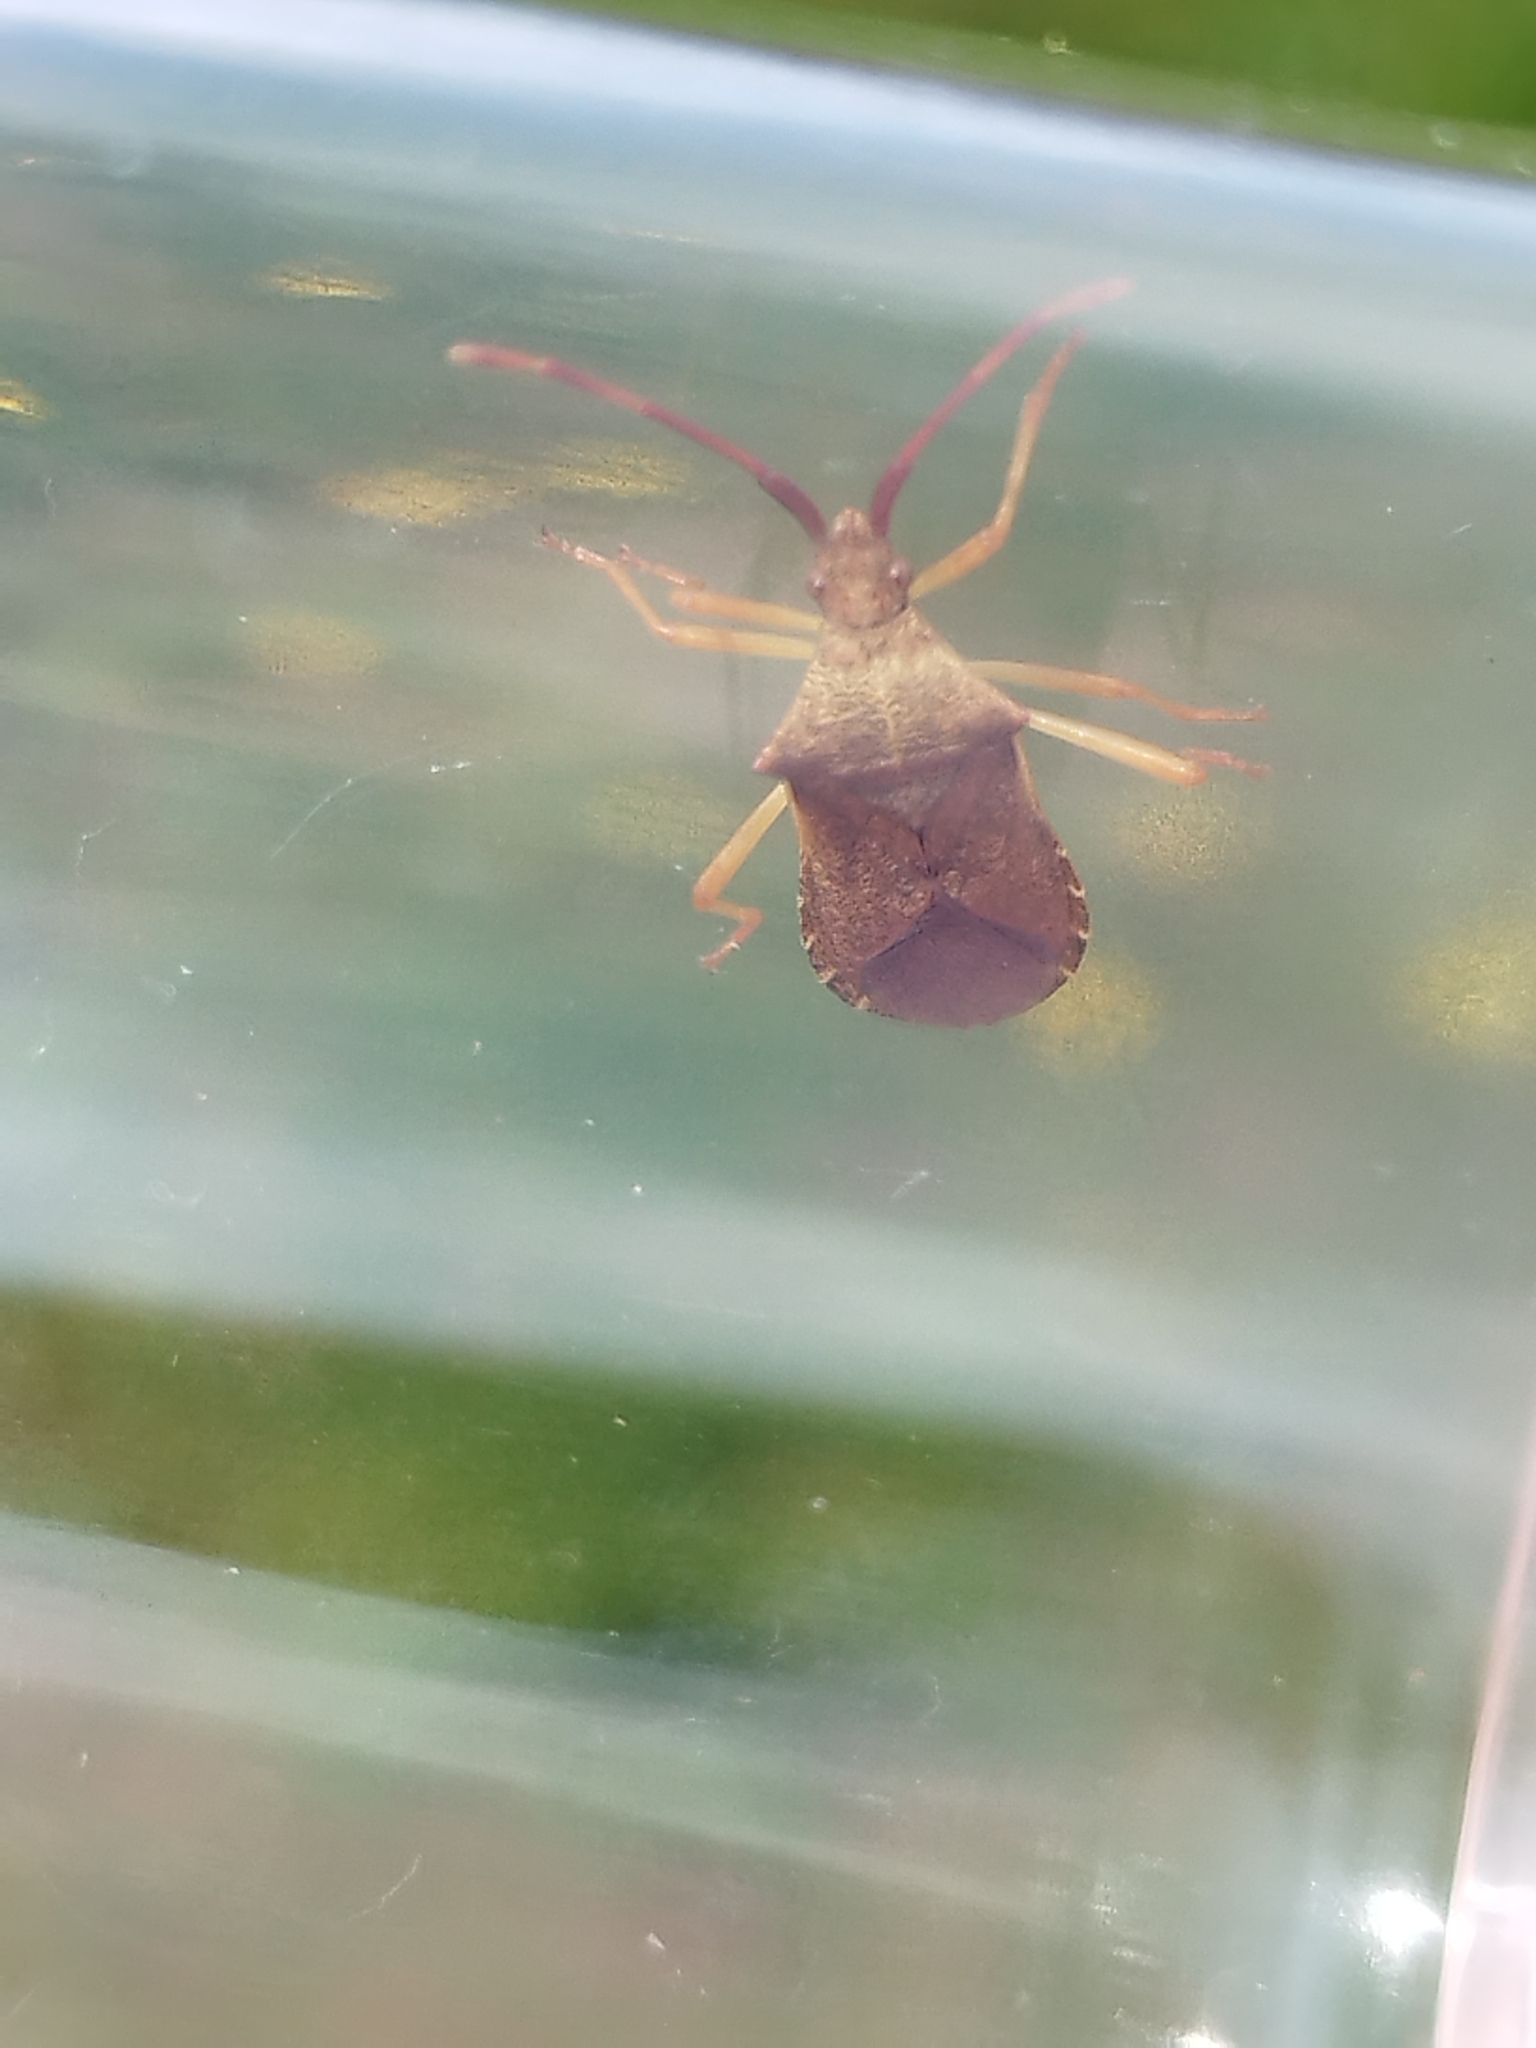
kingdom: Animalia
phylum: Arthropoda
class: Insecta
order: Hemiptera
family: Coreidae
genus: Gonocerus
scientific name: Gonocerus acuteangulatus
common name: Box bug
